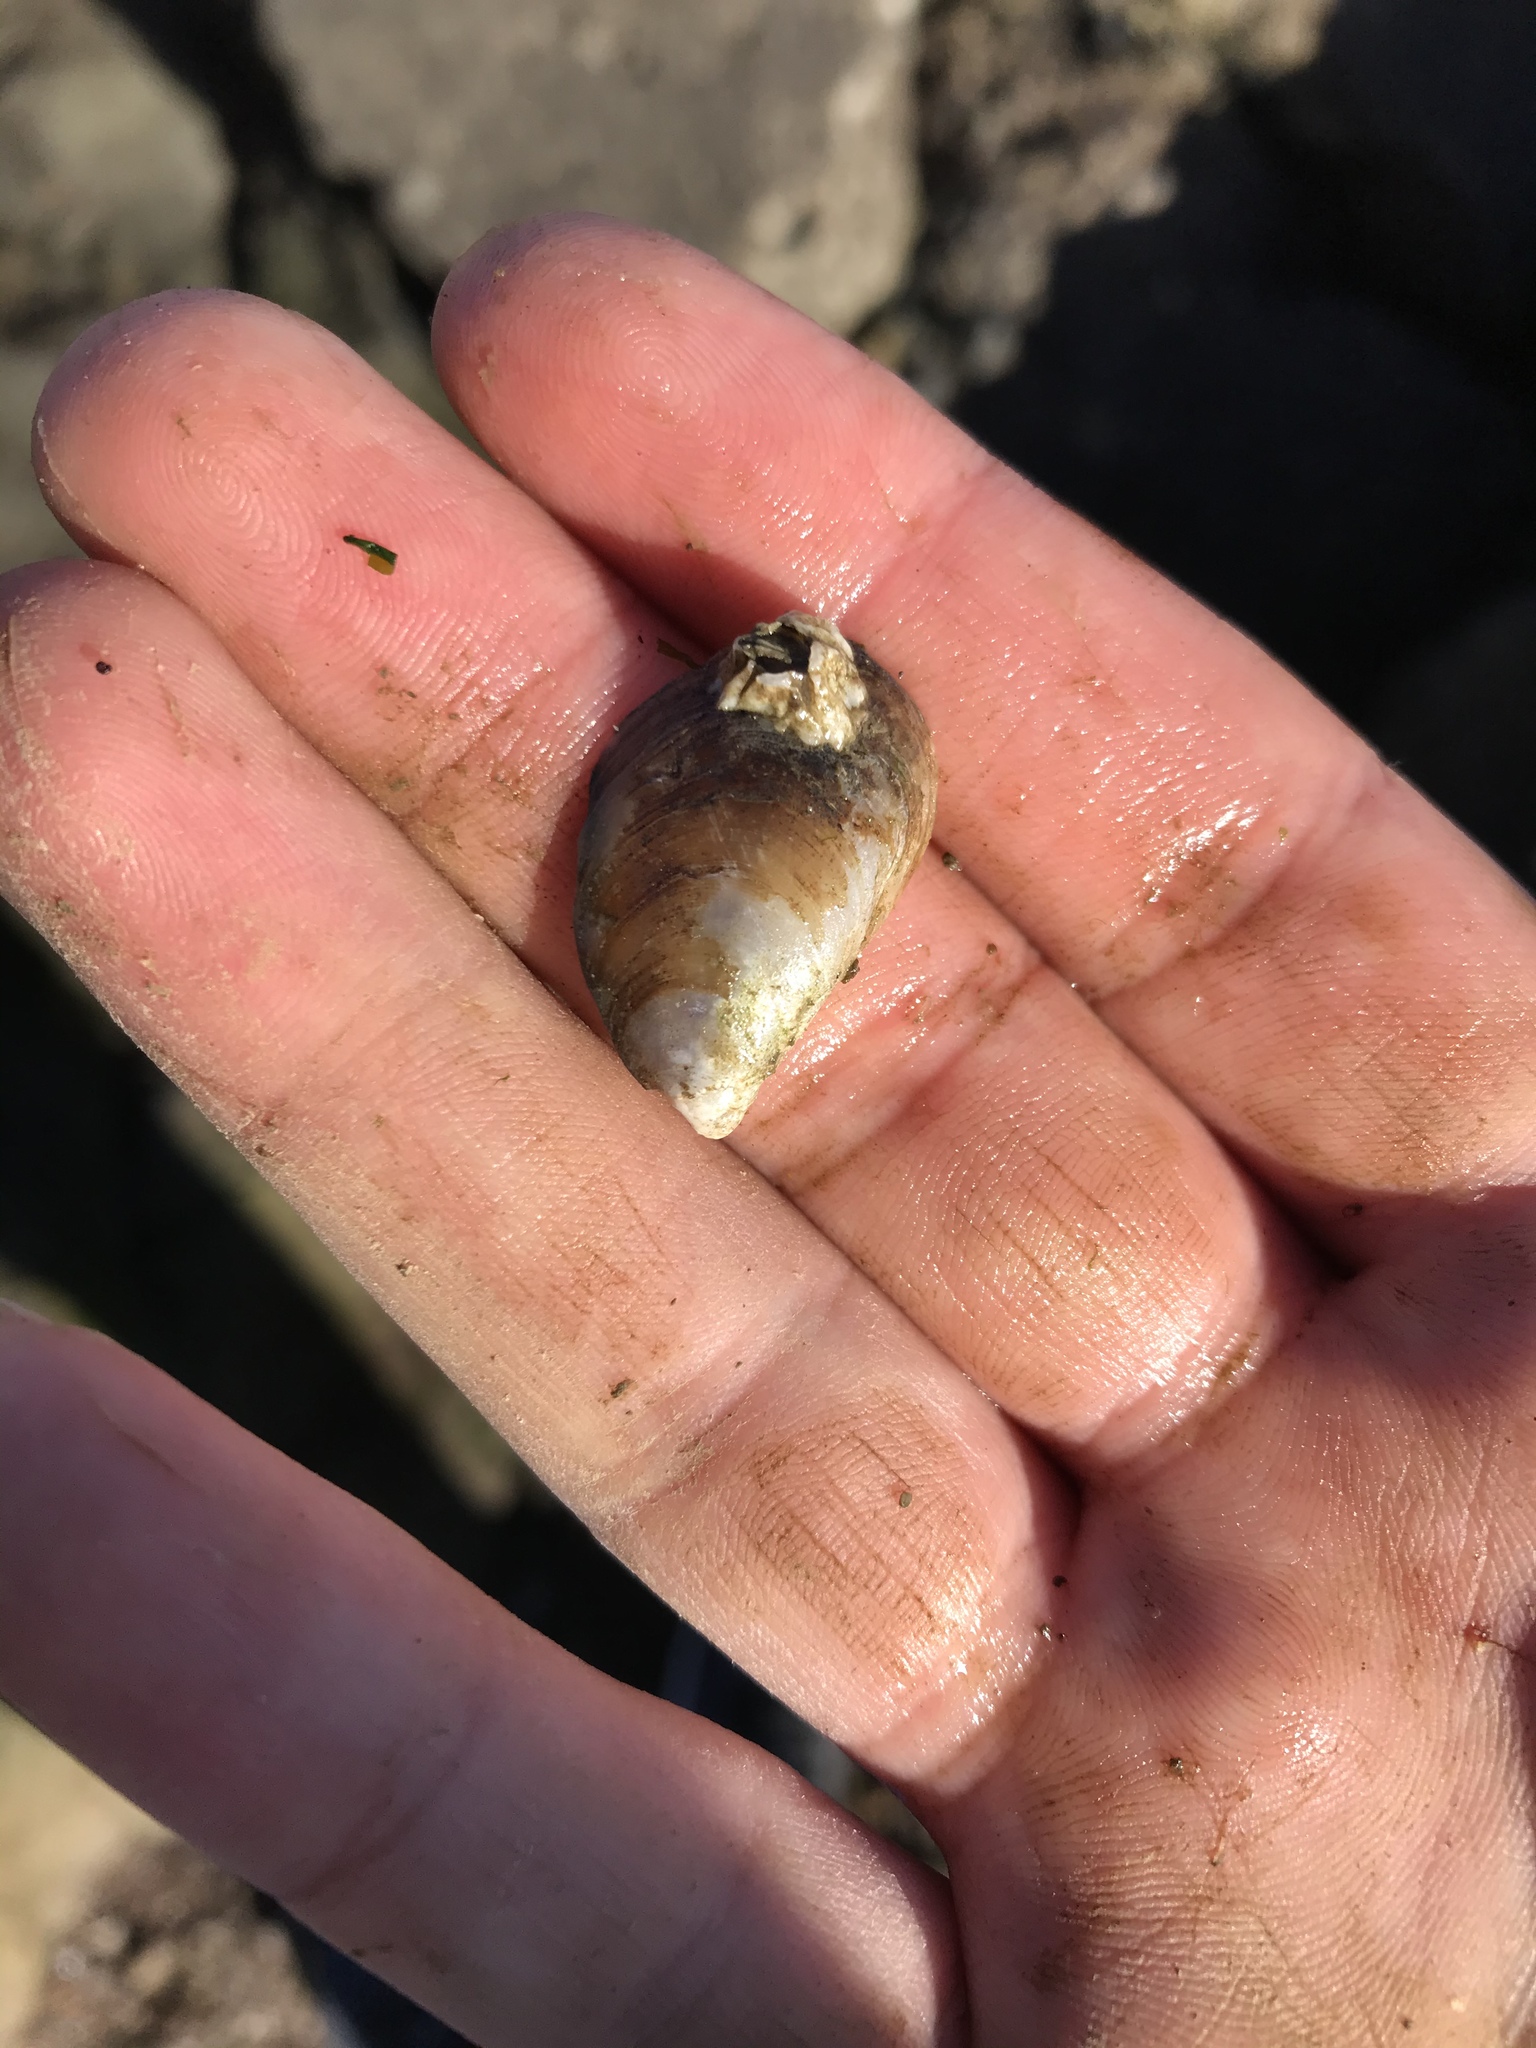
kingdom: Animalia
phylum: Mollusca
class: Bivalvia
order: Mytilida
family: Mytilidae
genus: Mytilus
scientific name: Mytilus
